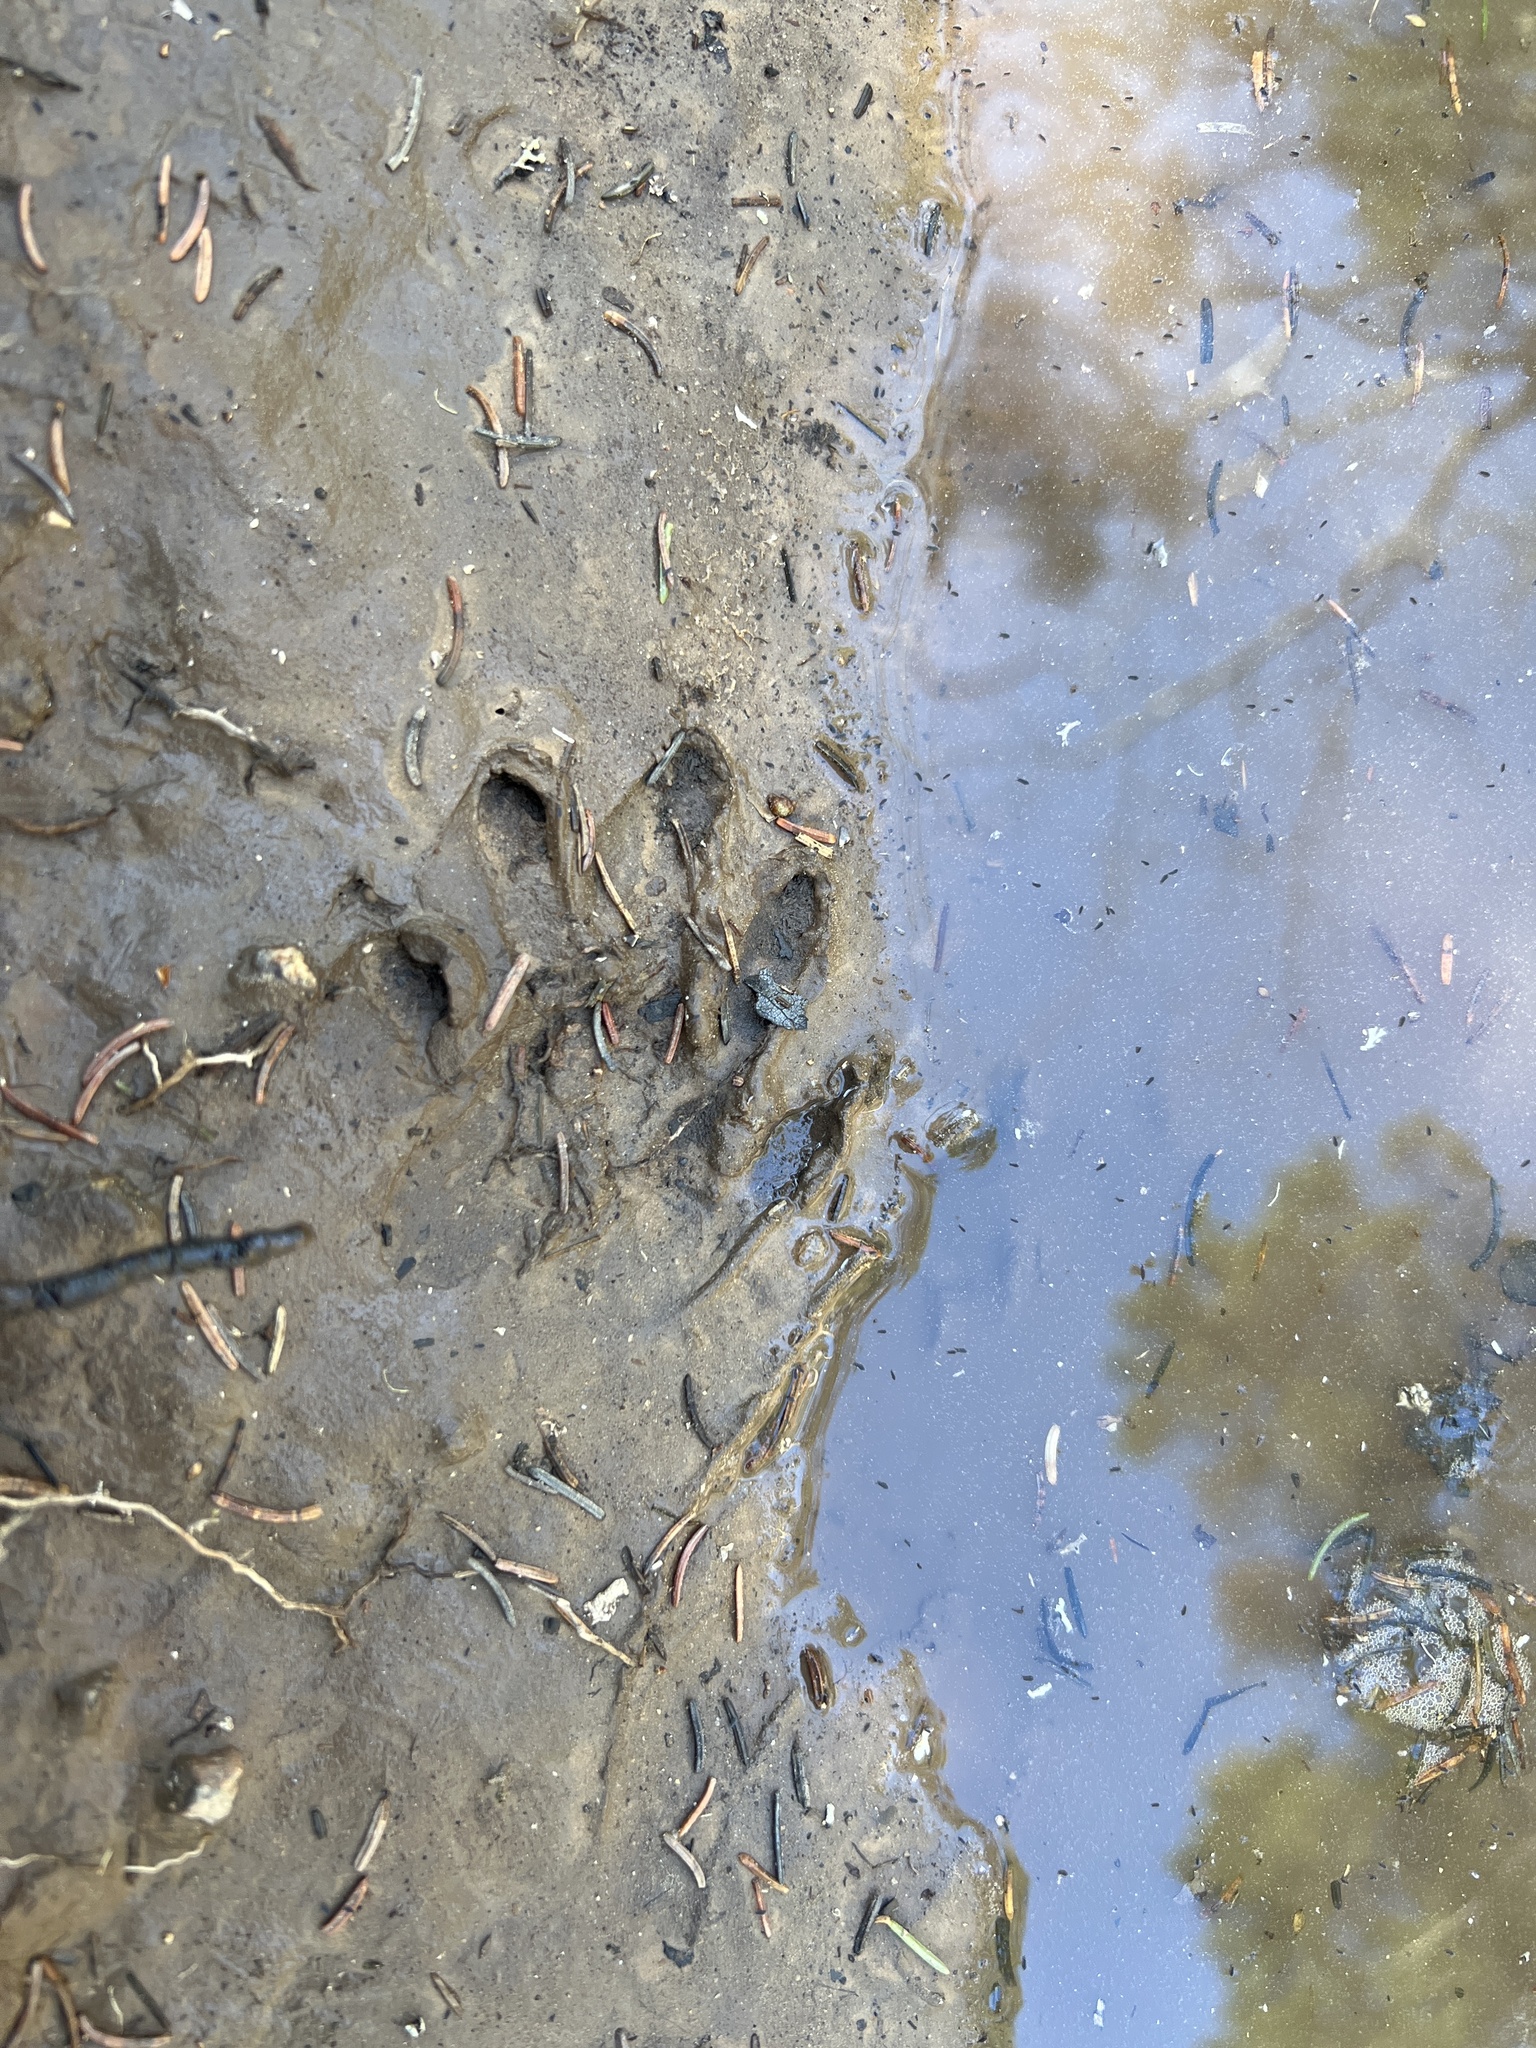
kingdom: Animalia
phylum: Chordata
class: Mammalia
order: Carnivora
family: Procyonidae
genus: Procyon
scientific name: Procyon lotor
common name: Raccoon
